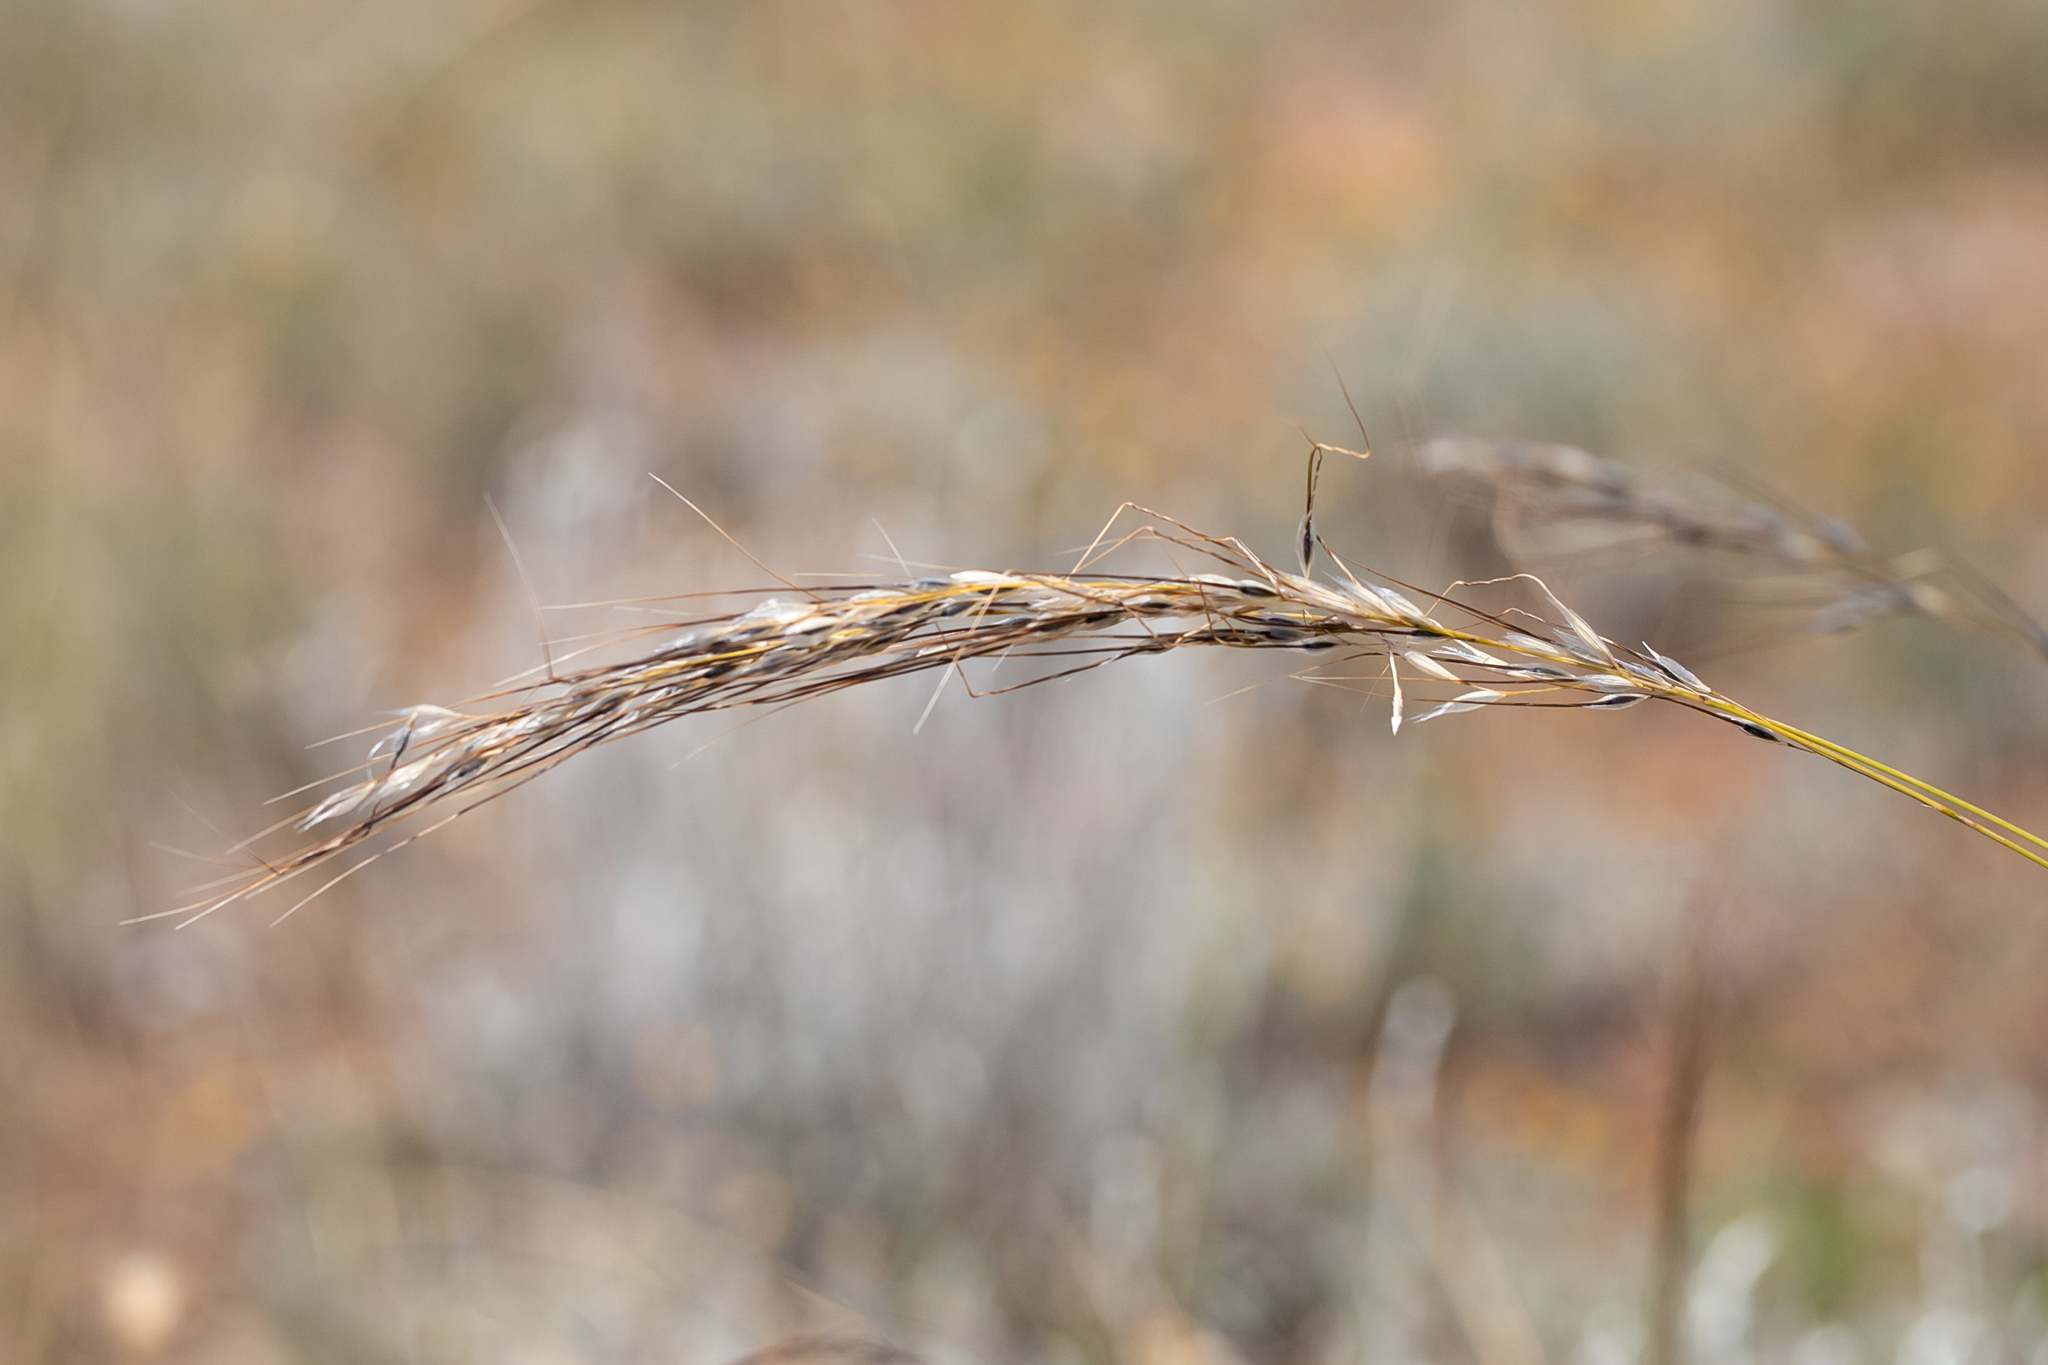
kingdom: Plantae
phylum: Tracheophyta
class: Liliopsida
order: Poales
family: Poaceae
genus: Austrostipa
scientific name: Austrostipa setacea
